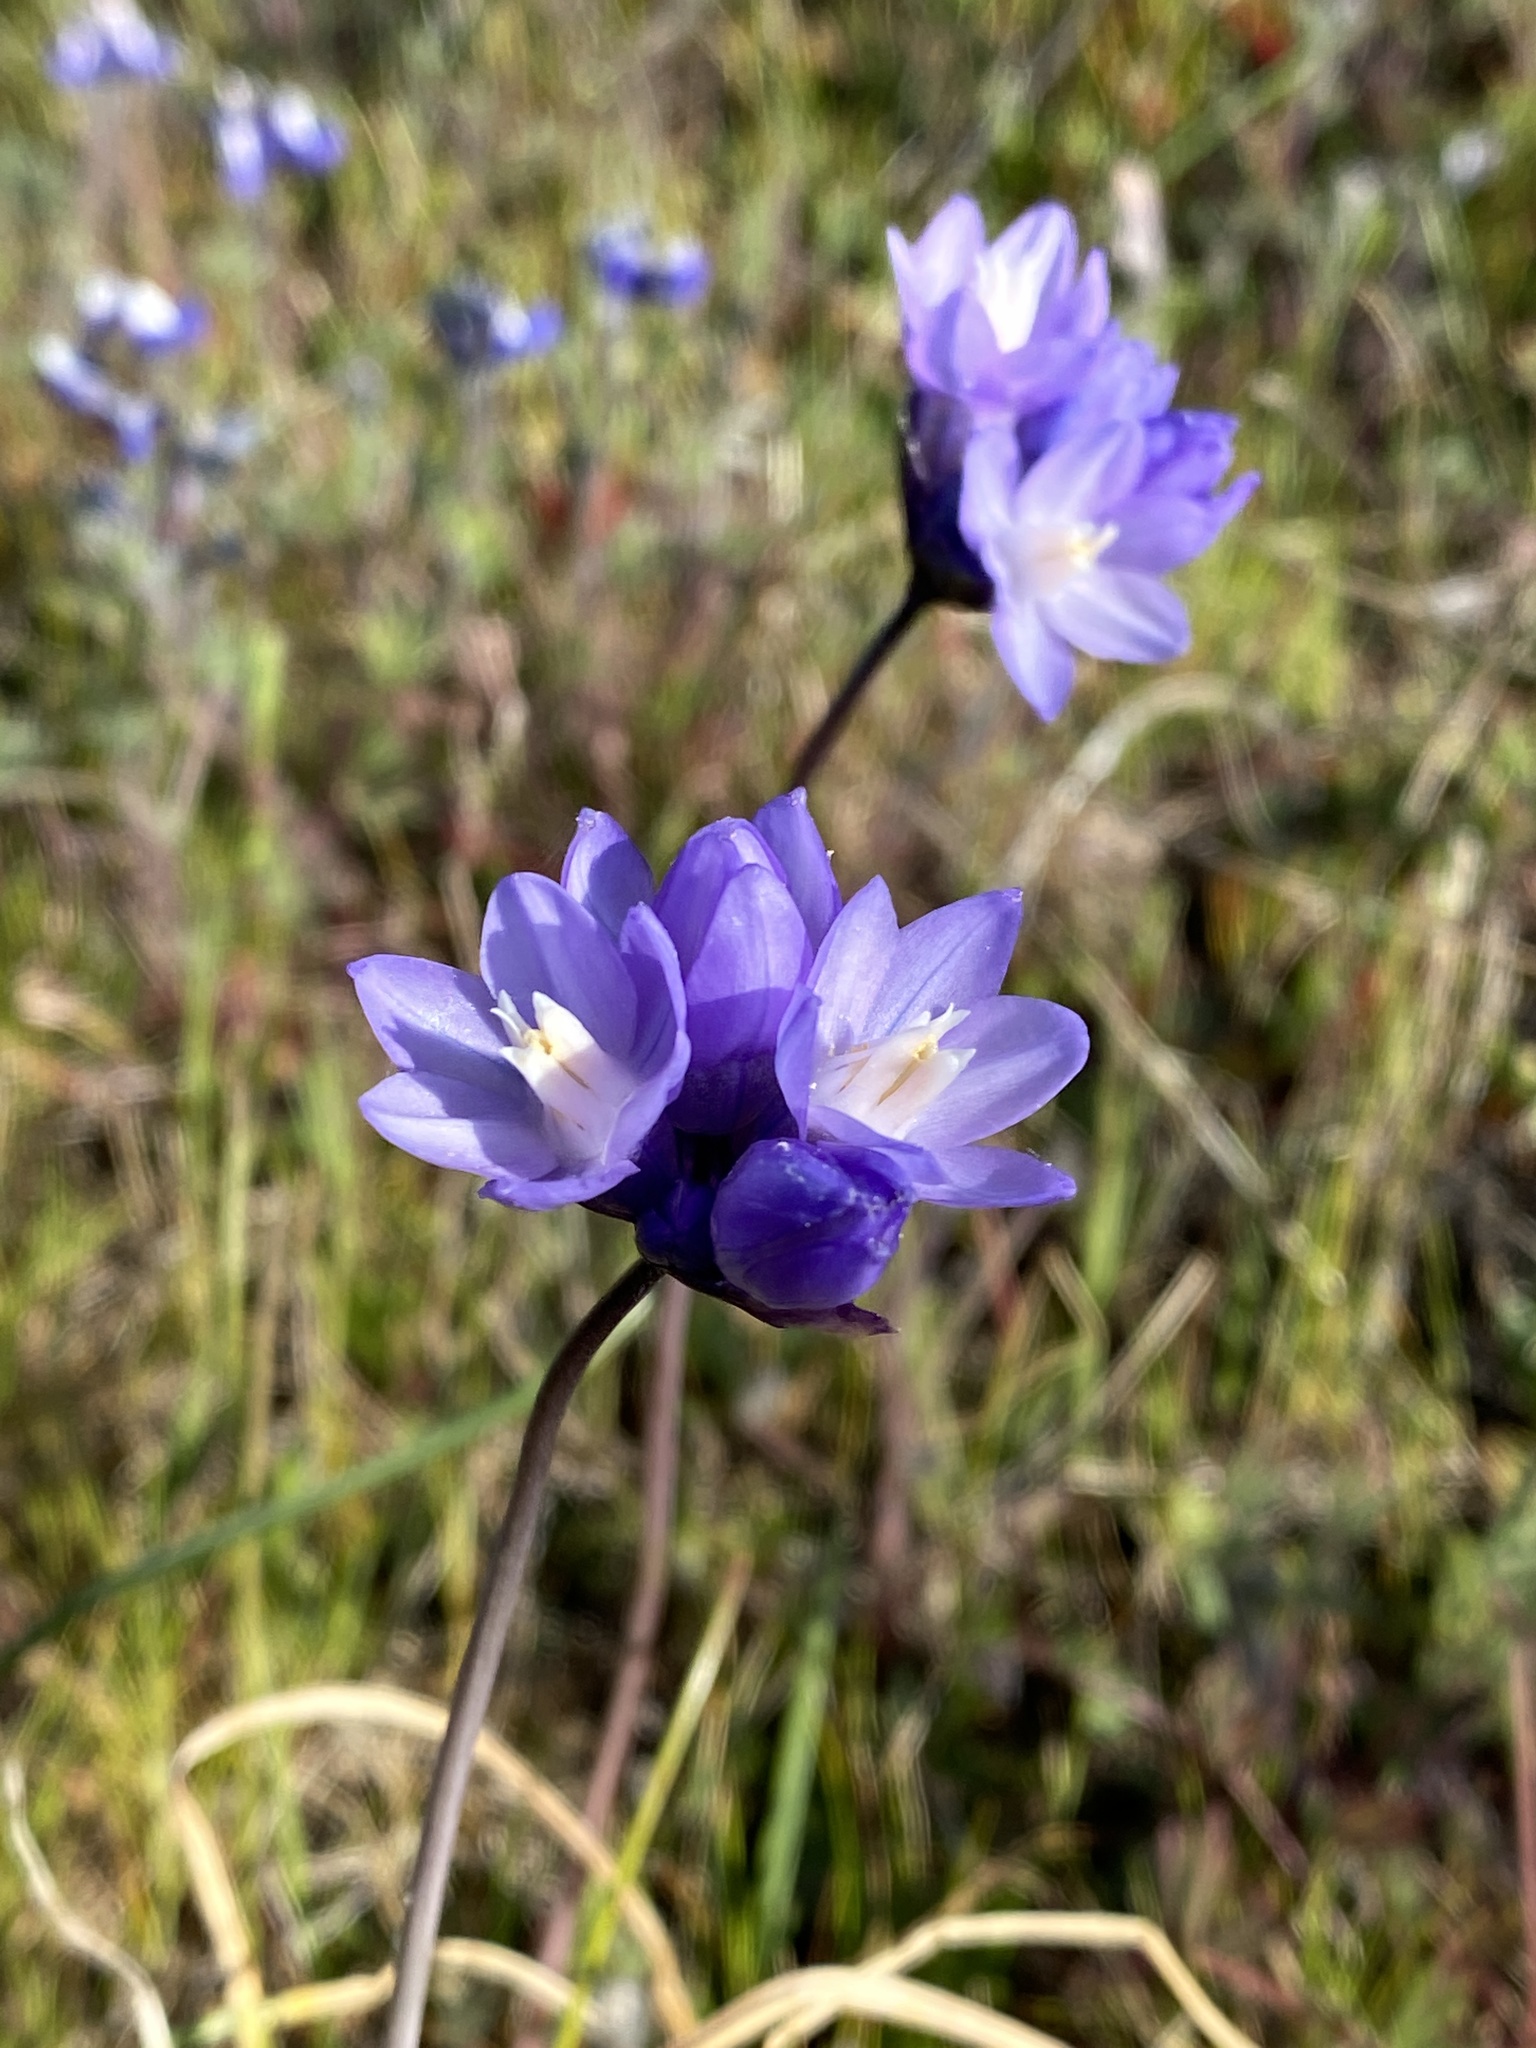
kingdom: Plantae
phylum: Tracheophyta
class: Liliopsida
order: Asparagales
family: Asparagaceae
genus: Dipterostemon
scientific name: Dipterostemon capitatus
